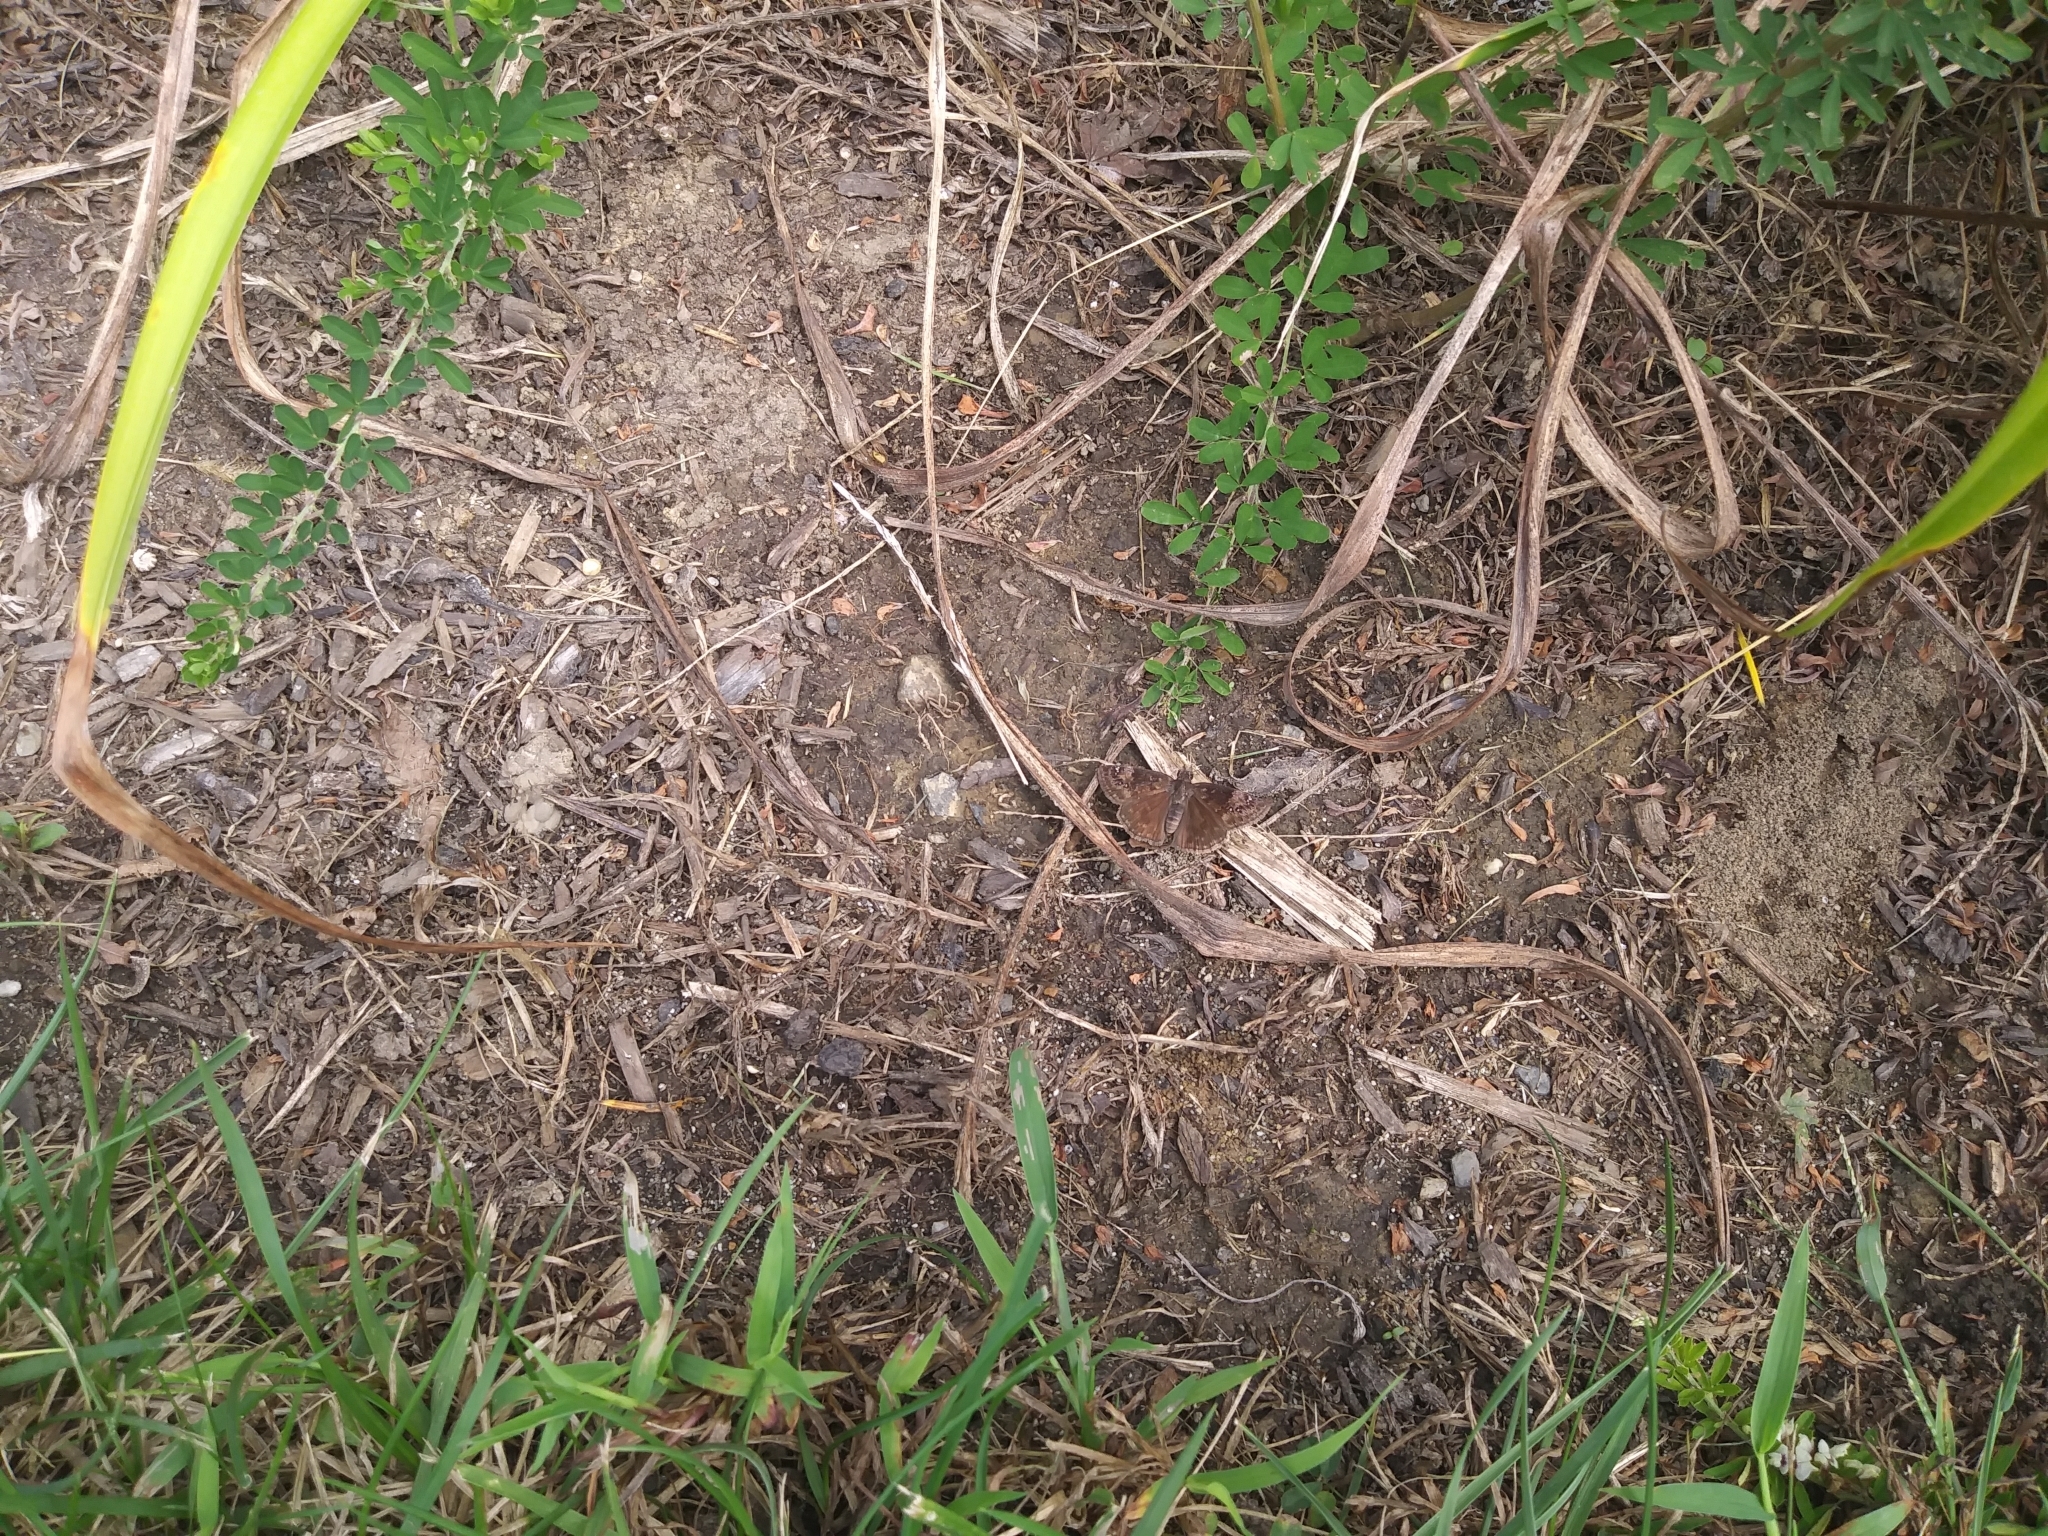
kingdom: Animalia
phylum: Arthropoda
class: Insecta
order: Lepidoptera
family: Hesperiidae
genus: Erynnis
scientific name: Erynnis baptisiae
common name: Wild indigo duskywing
